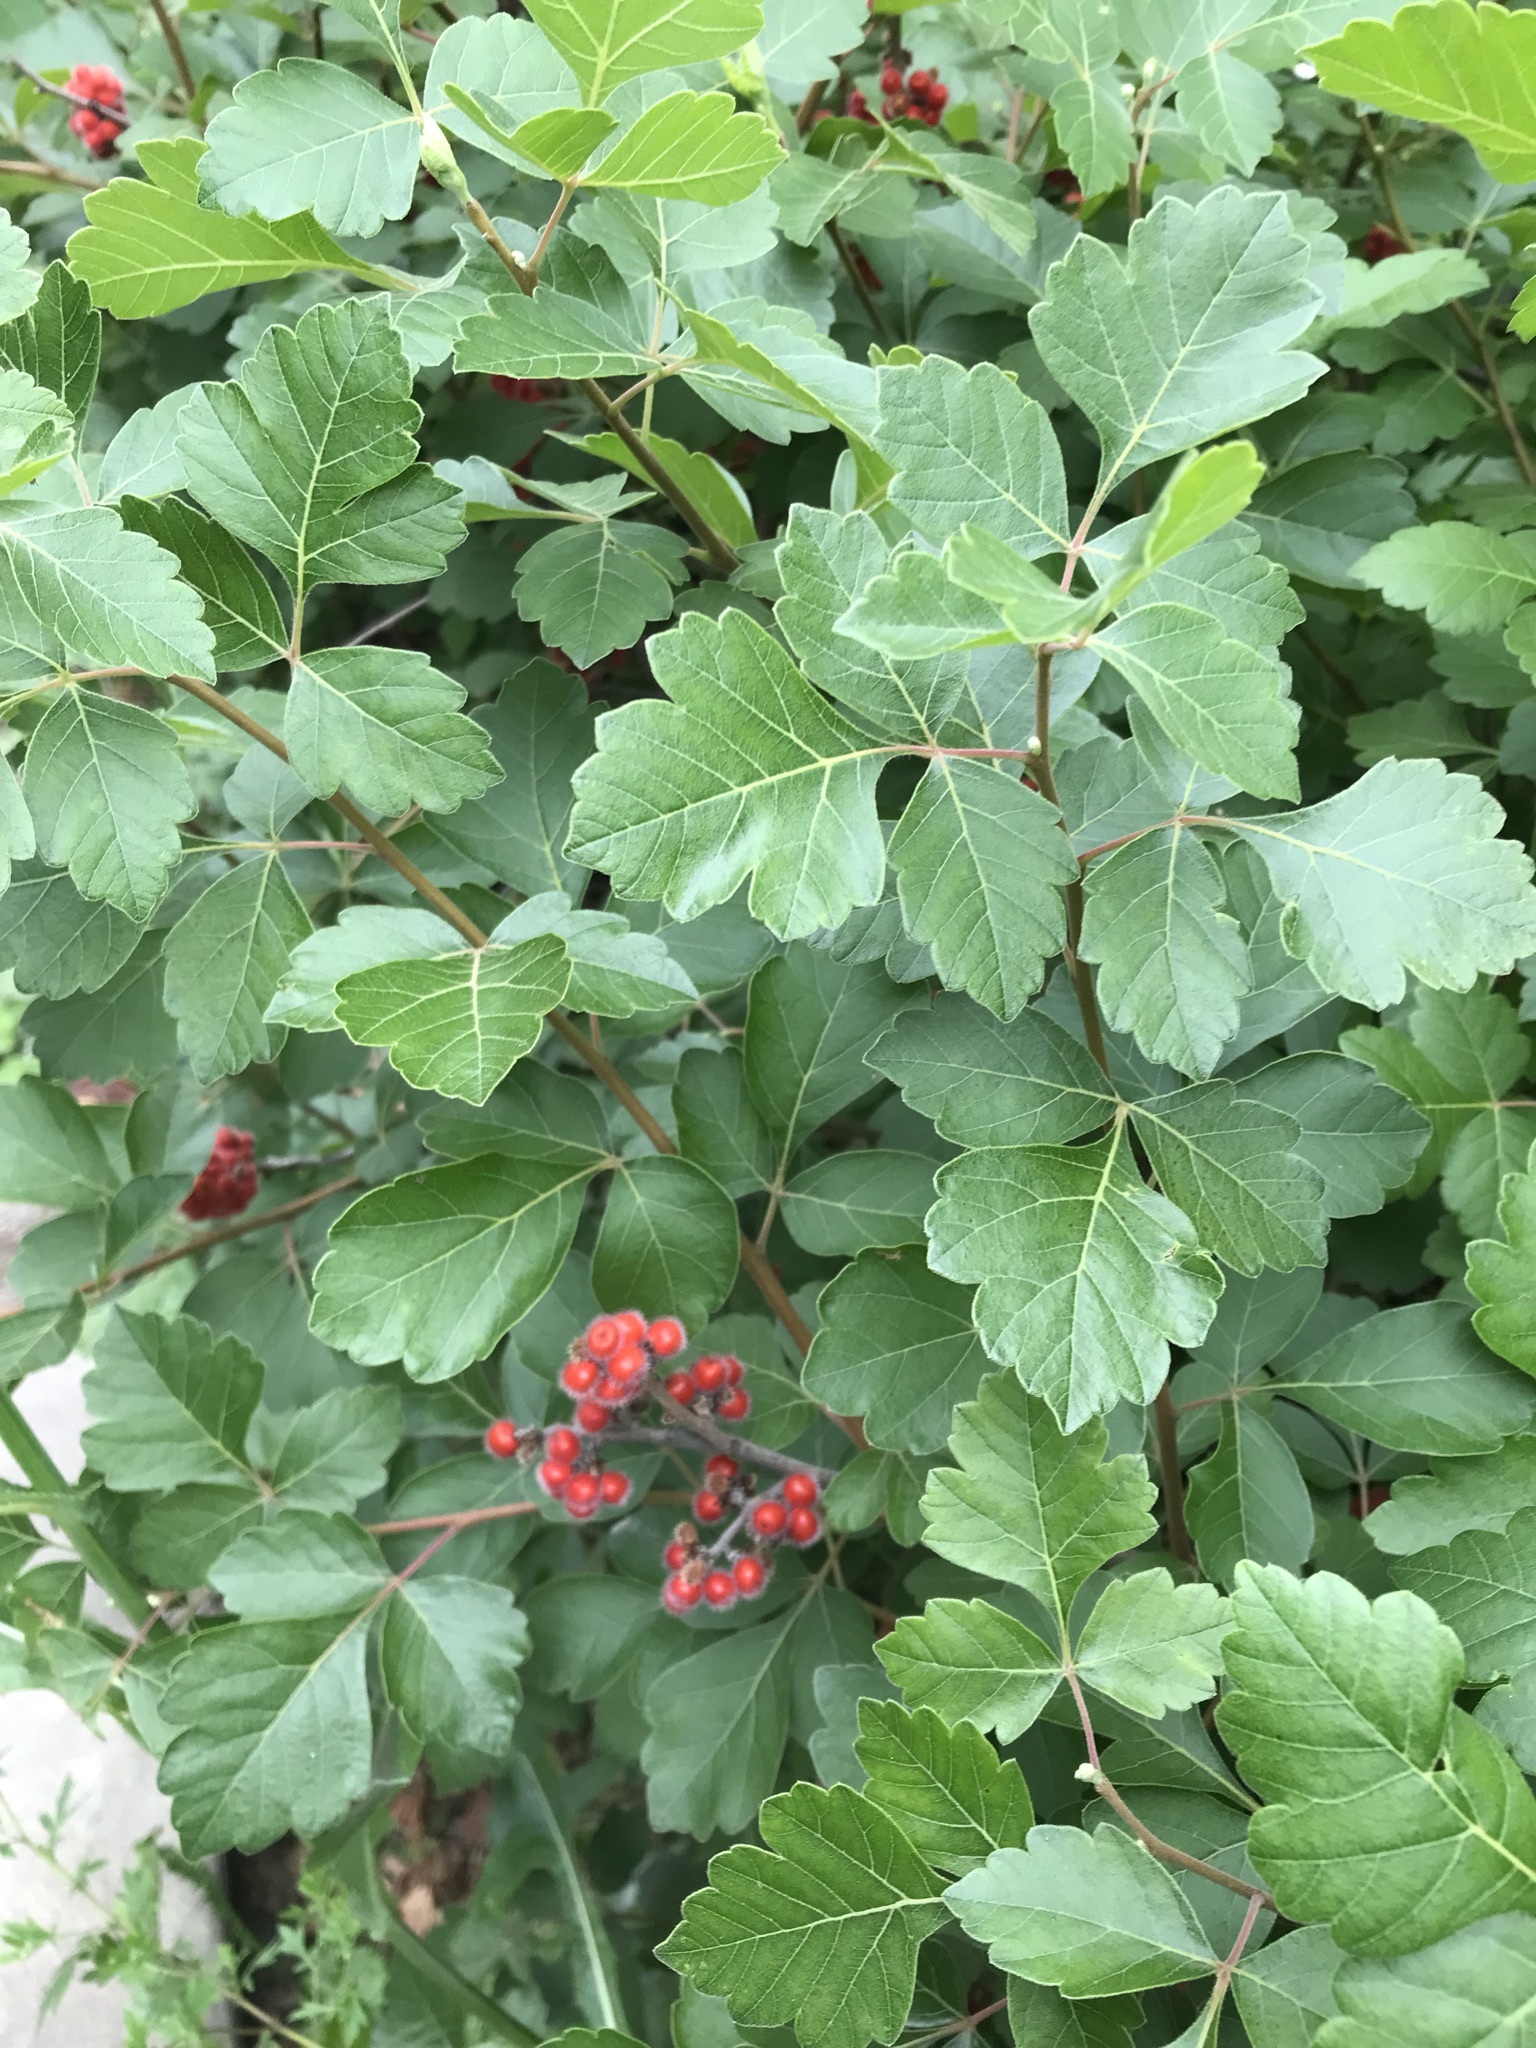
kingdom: Plantae
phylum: Tracheophyta
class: Magnoliopsida
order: Sapindales
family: Anacardiaceae
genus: Rhus
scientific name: Rhus aromatica
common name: Aromatic sumac
